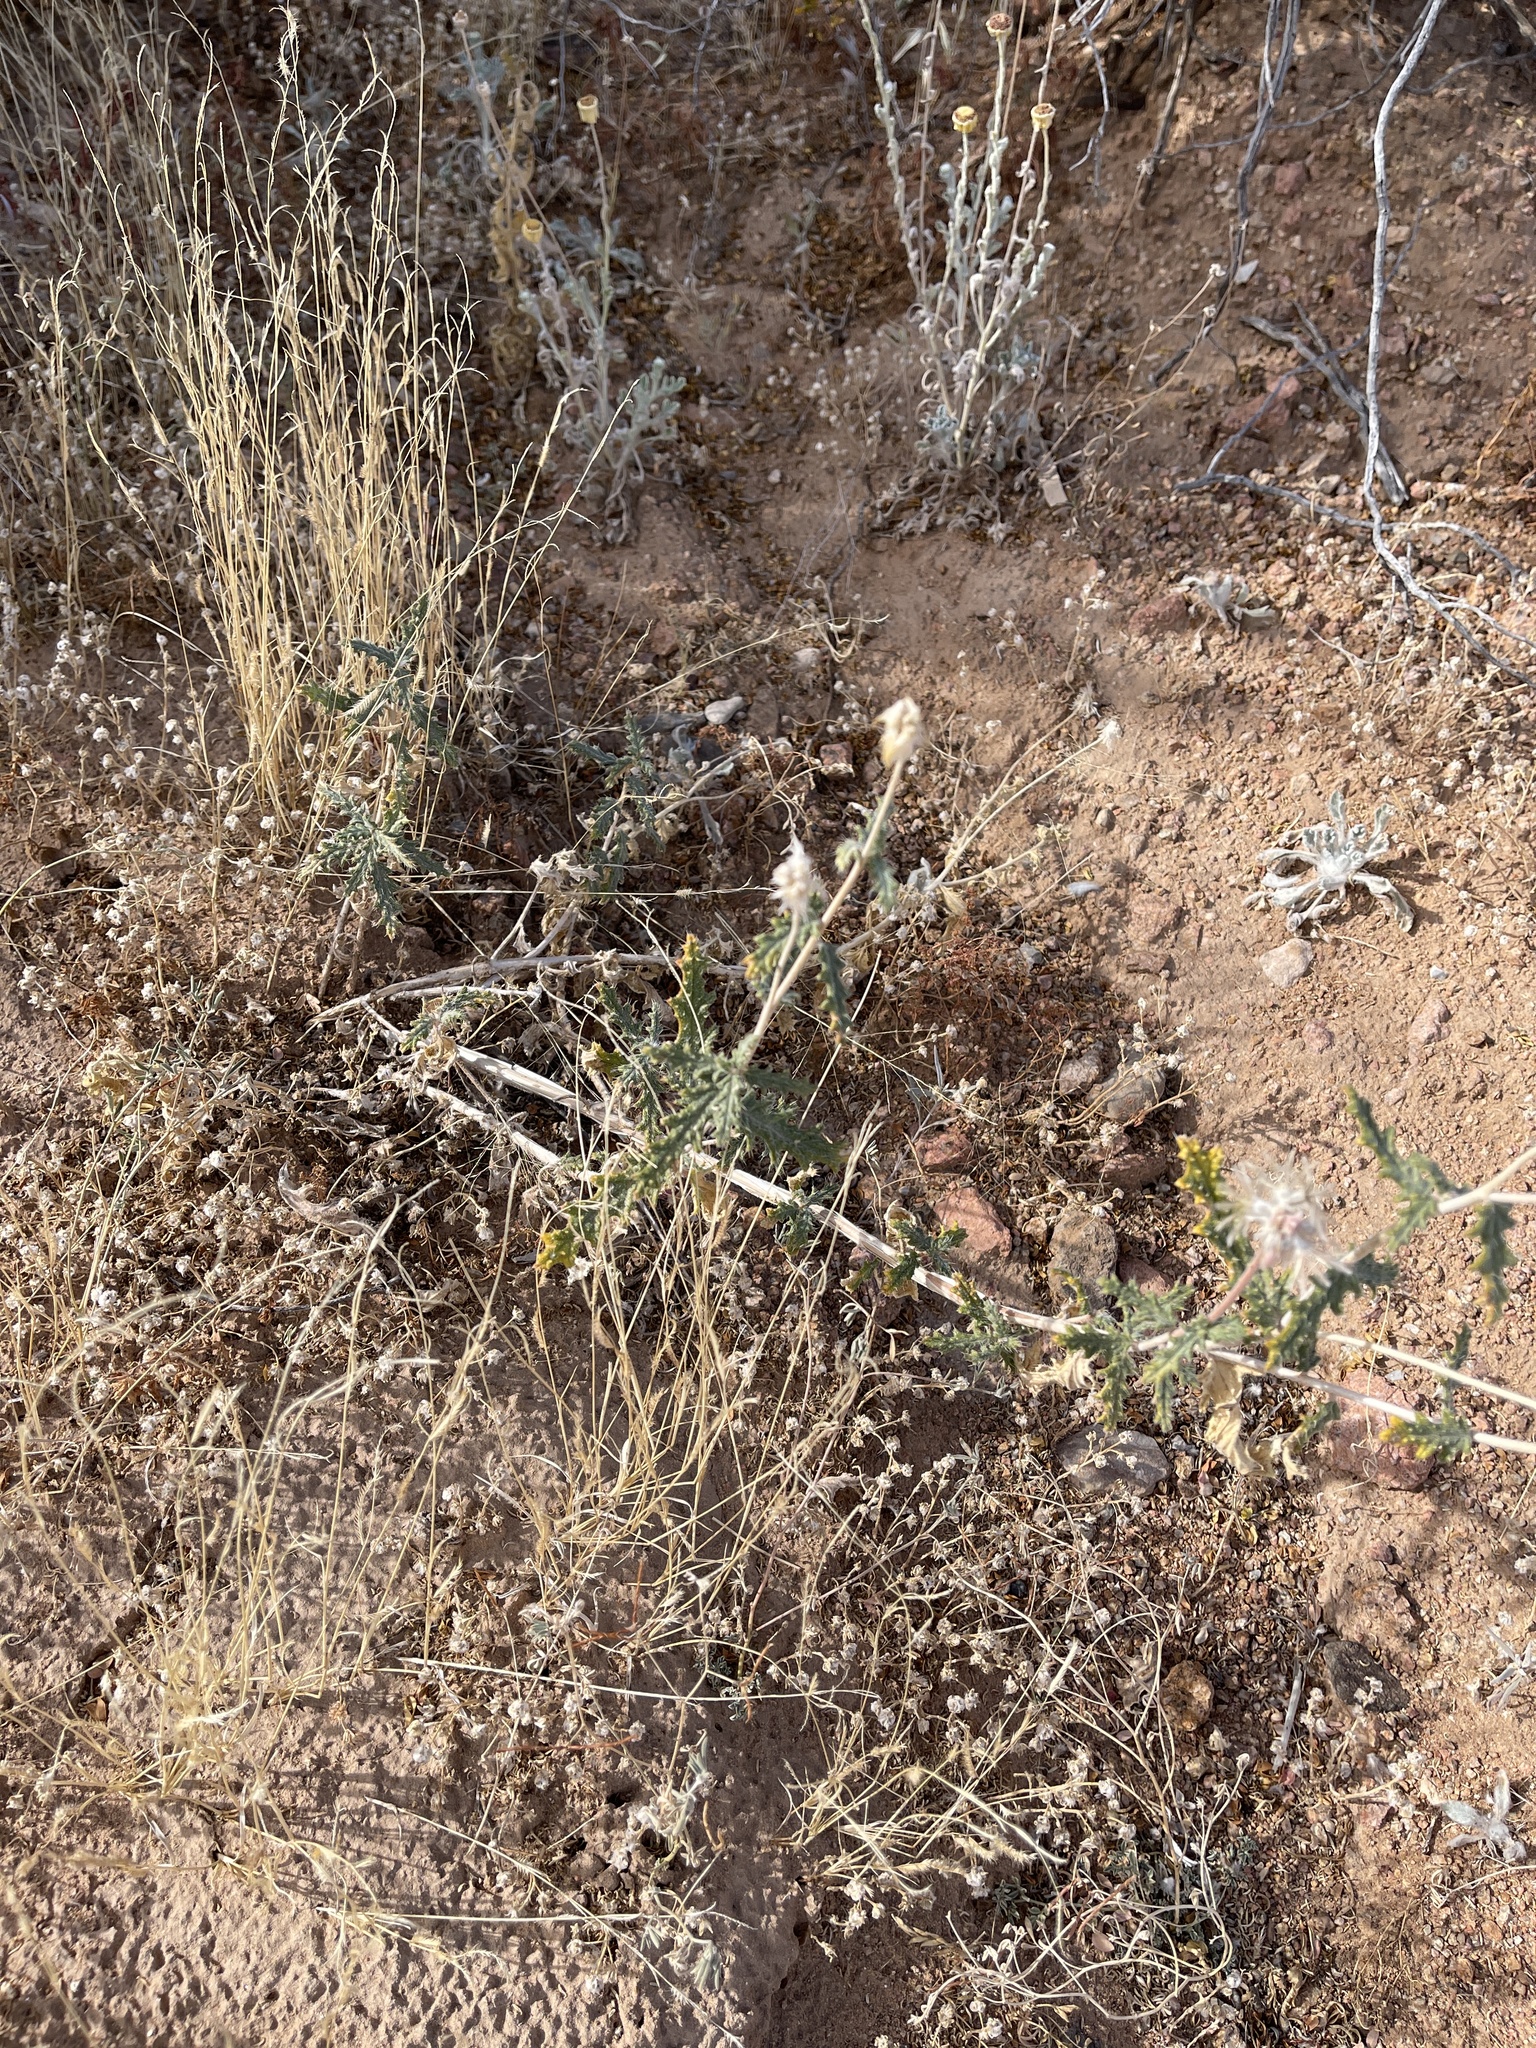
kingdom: Plantae
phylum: Tracheophyta
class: Magnoliopsida
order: Cornales
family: Loasaceae
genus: Cevallia
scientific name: Cevallia sinuata
